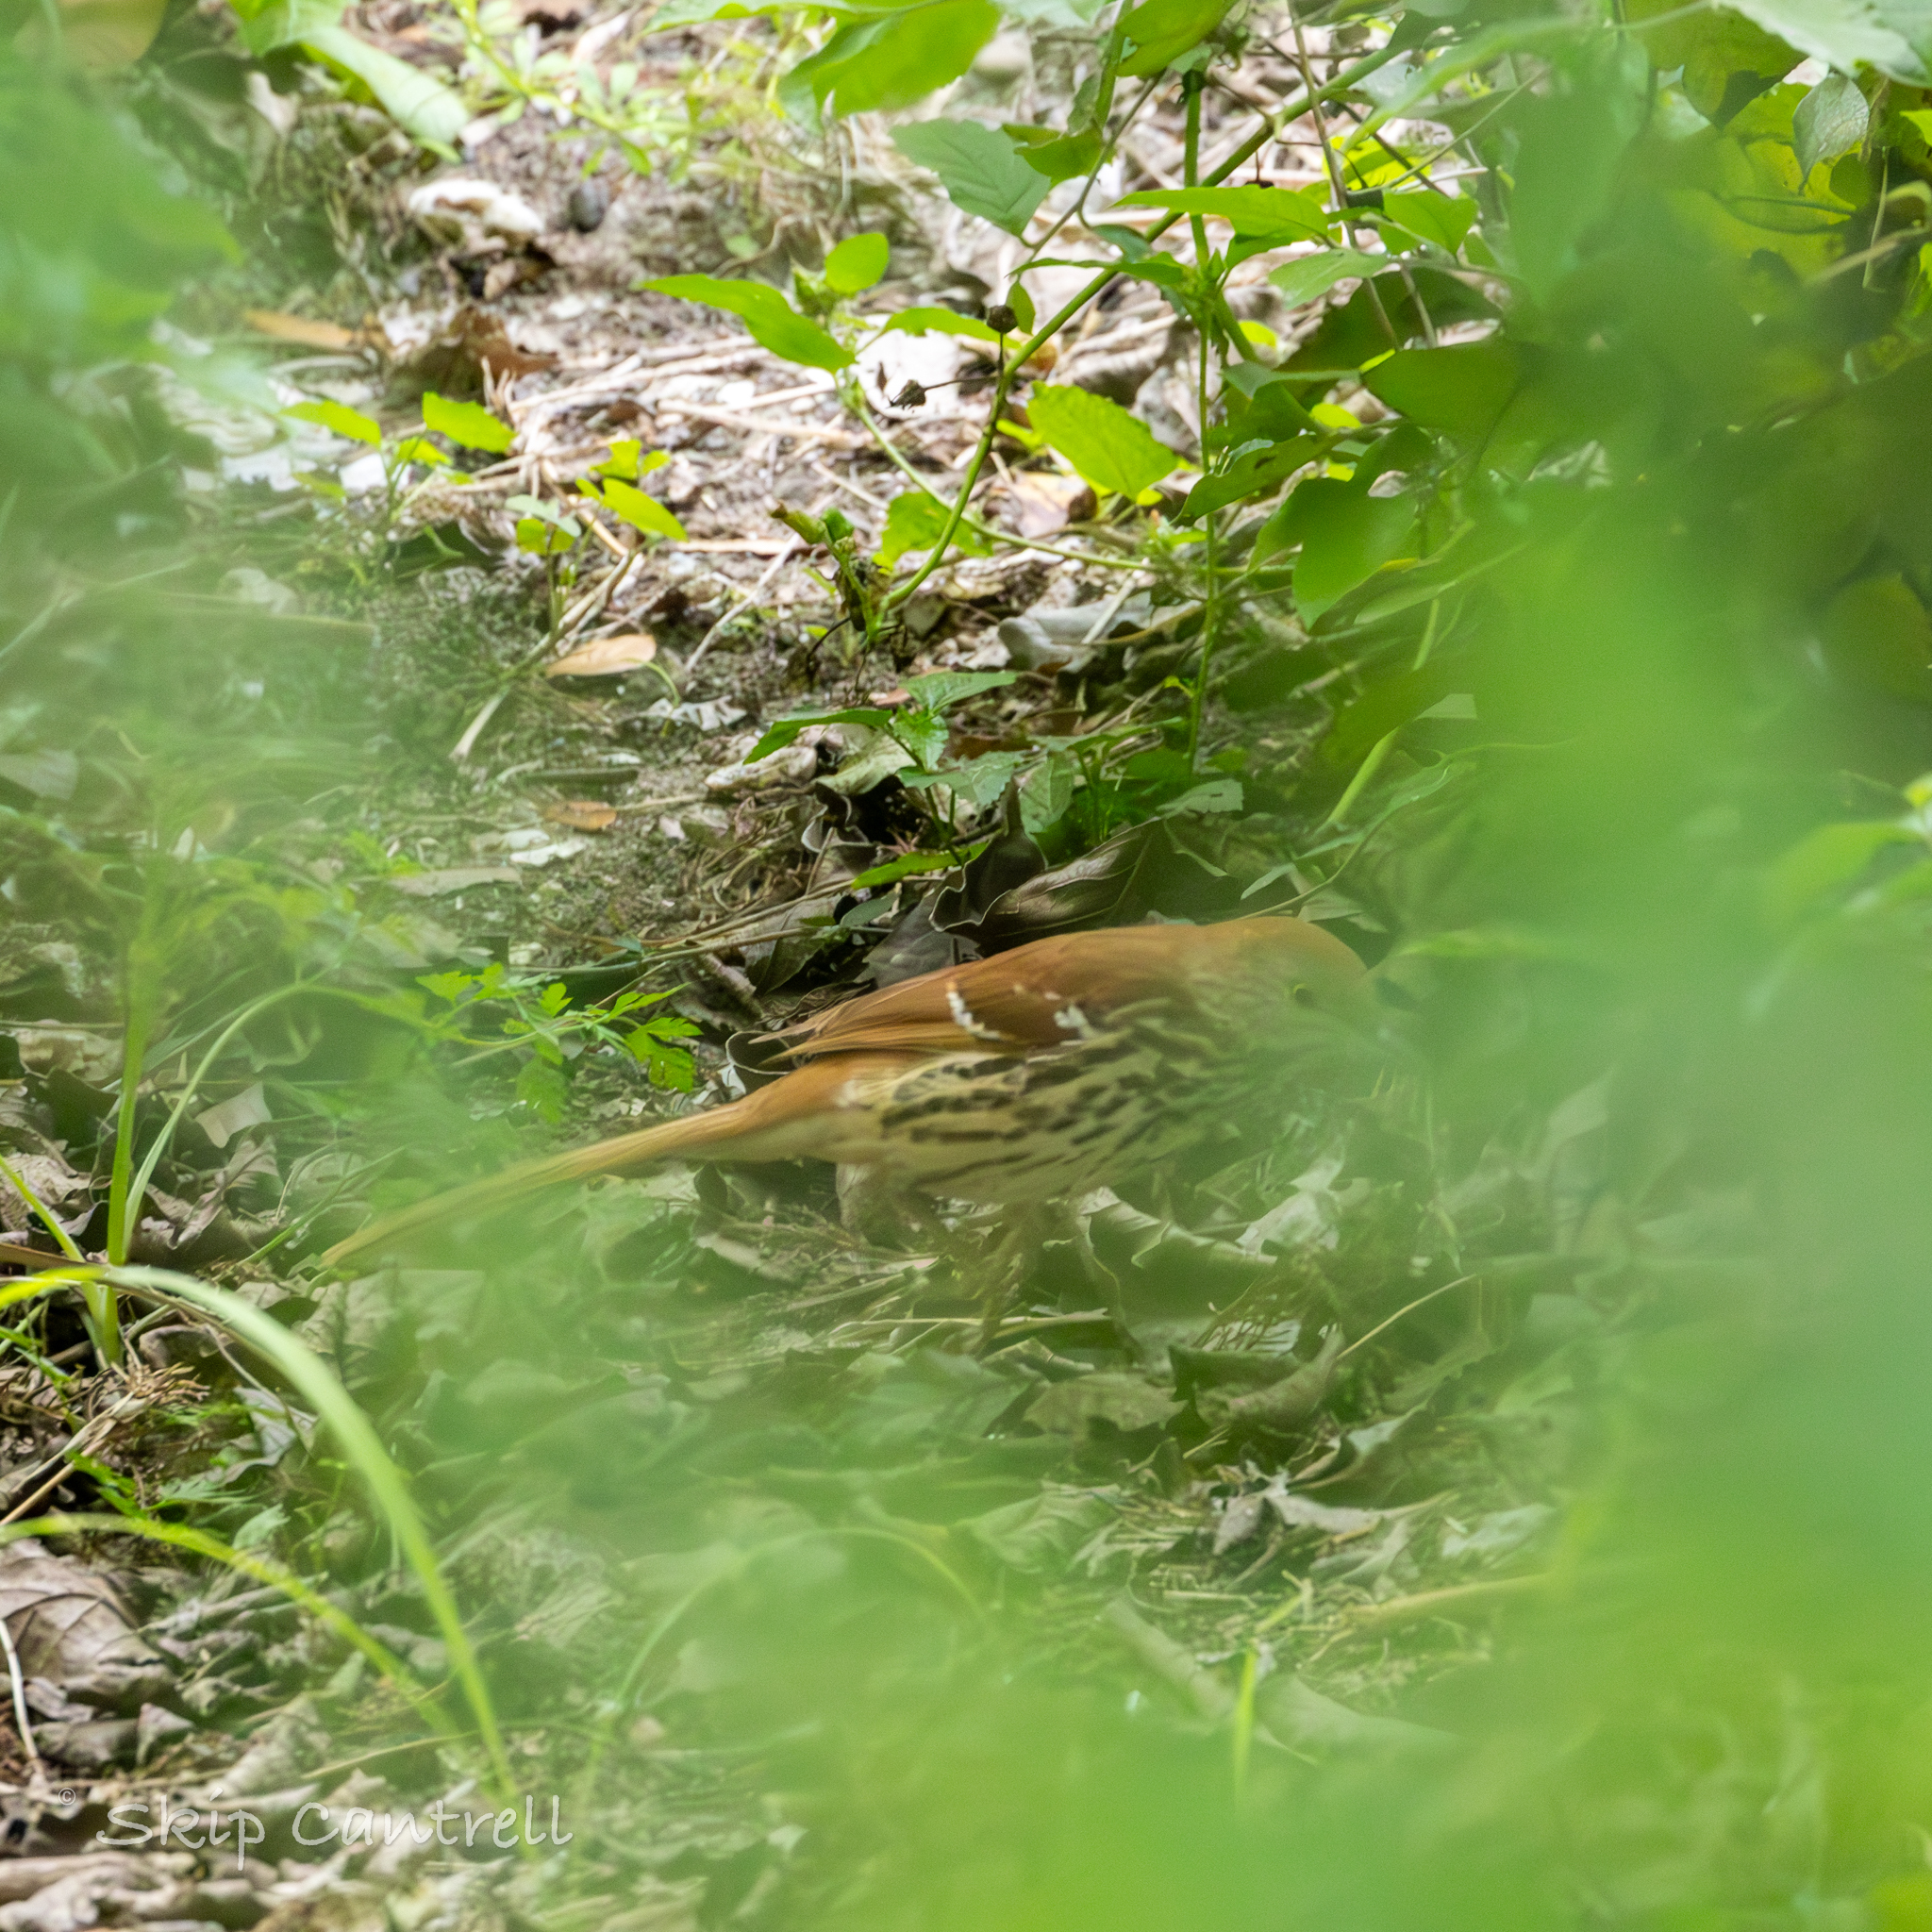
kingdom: Animalia
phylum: Chordata
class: Aves
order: Passeriformes
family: Mimidae
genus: Toxostoma
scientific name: Toxostoma rufum
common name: Brown thrasher
